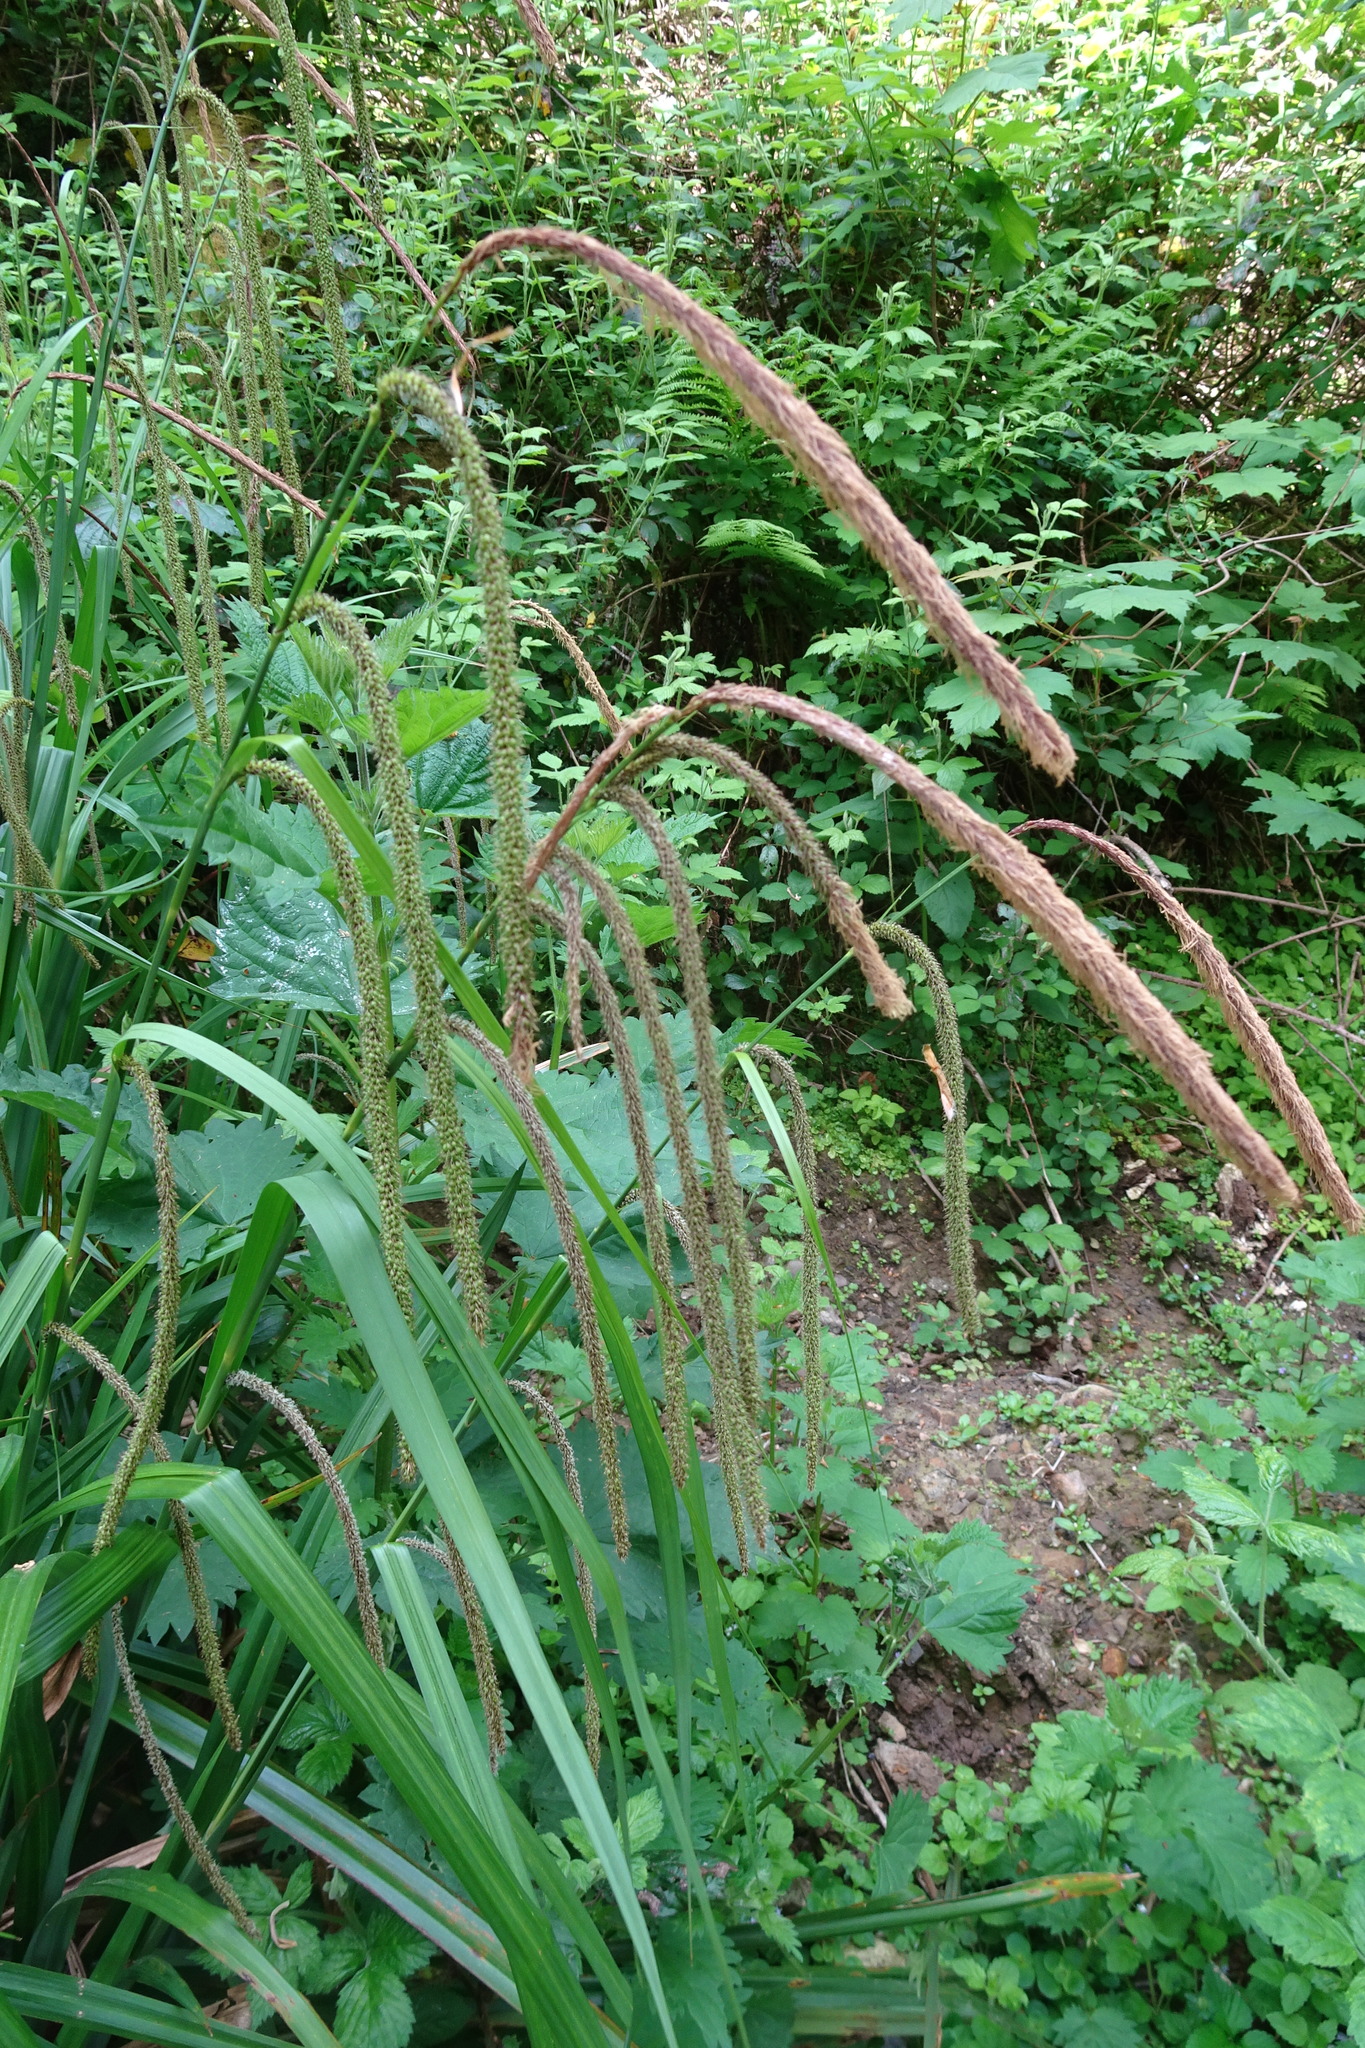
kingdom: Plantae
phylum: Tracheophyta
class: Liliopsida
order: Poales
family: Cyperaceae
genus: Carex
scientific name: Carex pendula
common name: Pendulous sedge
